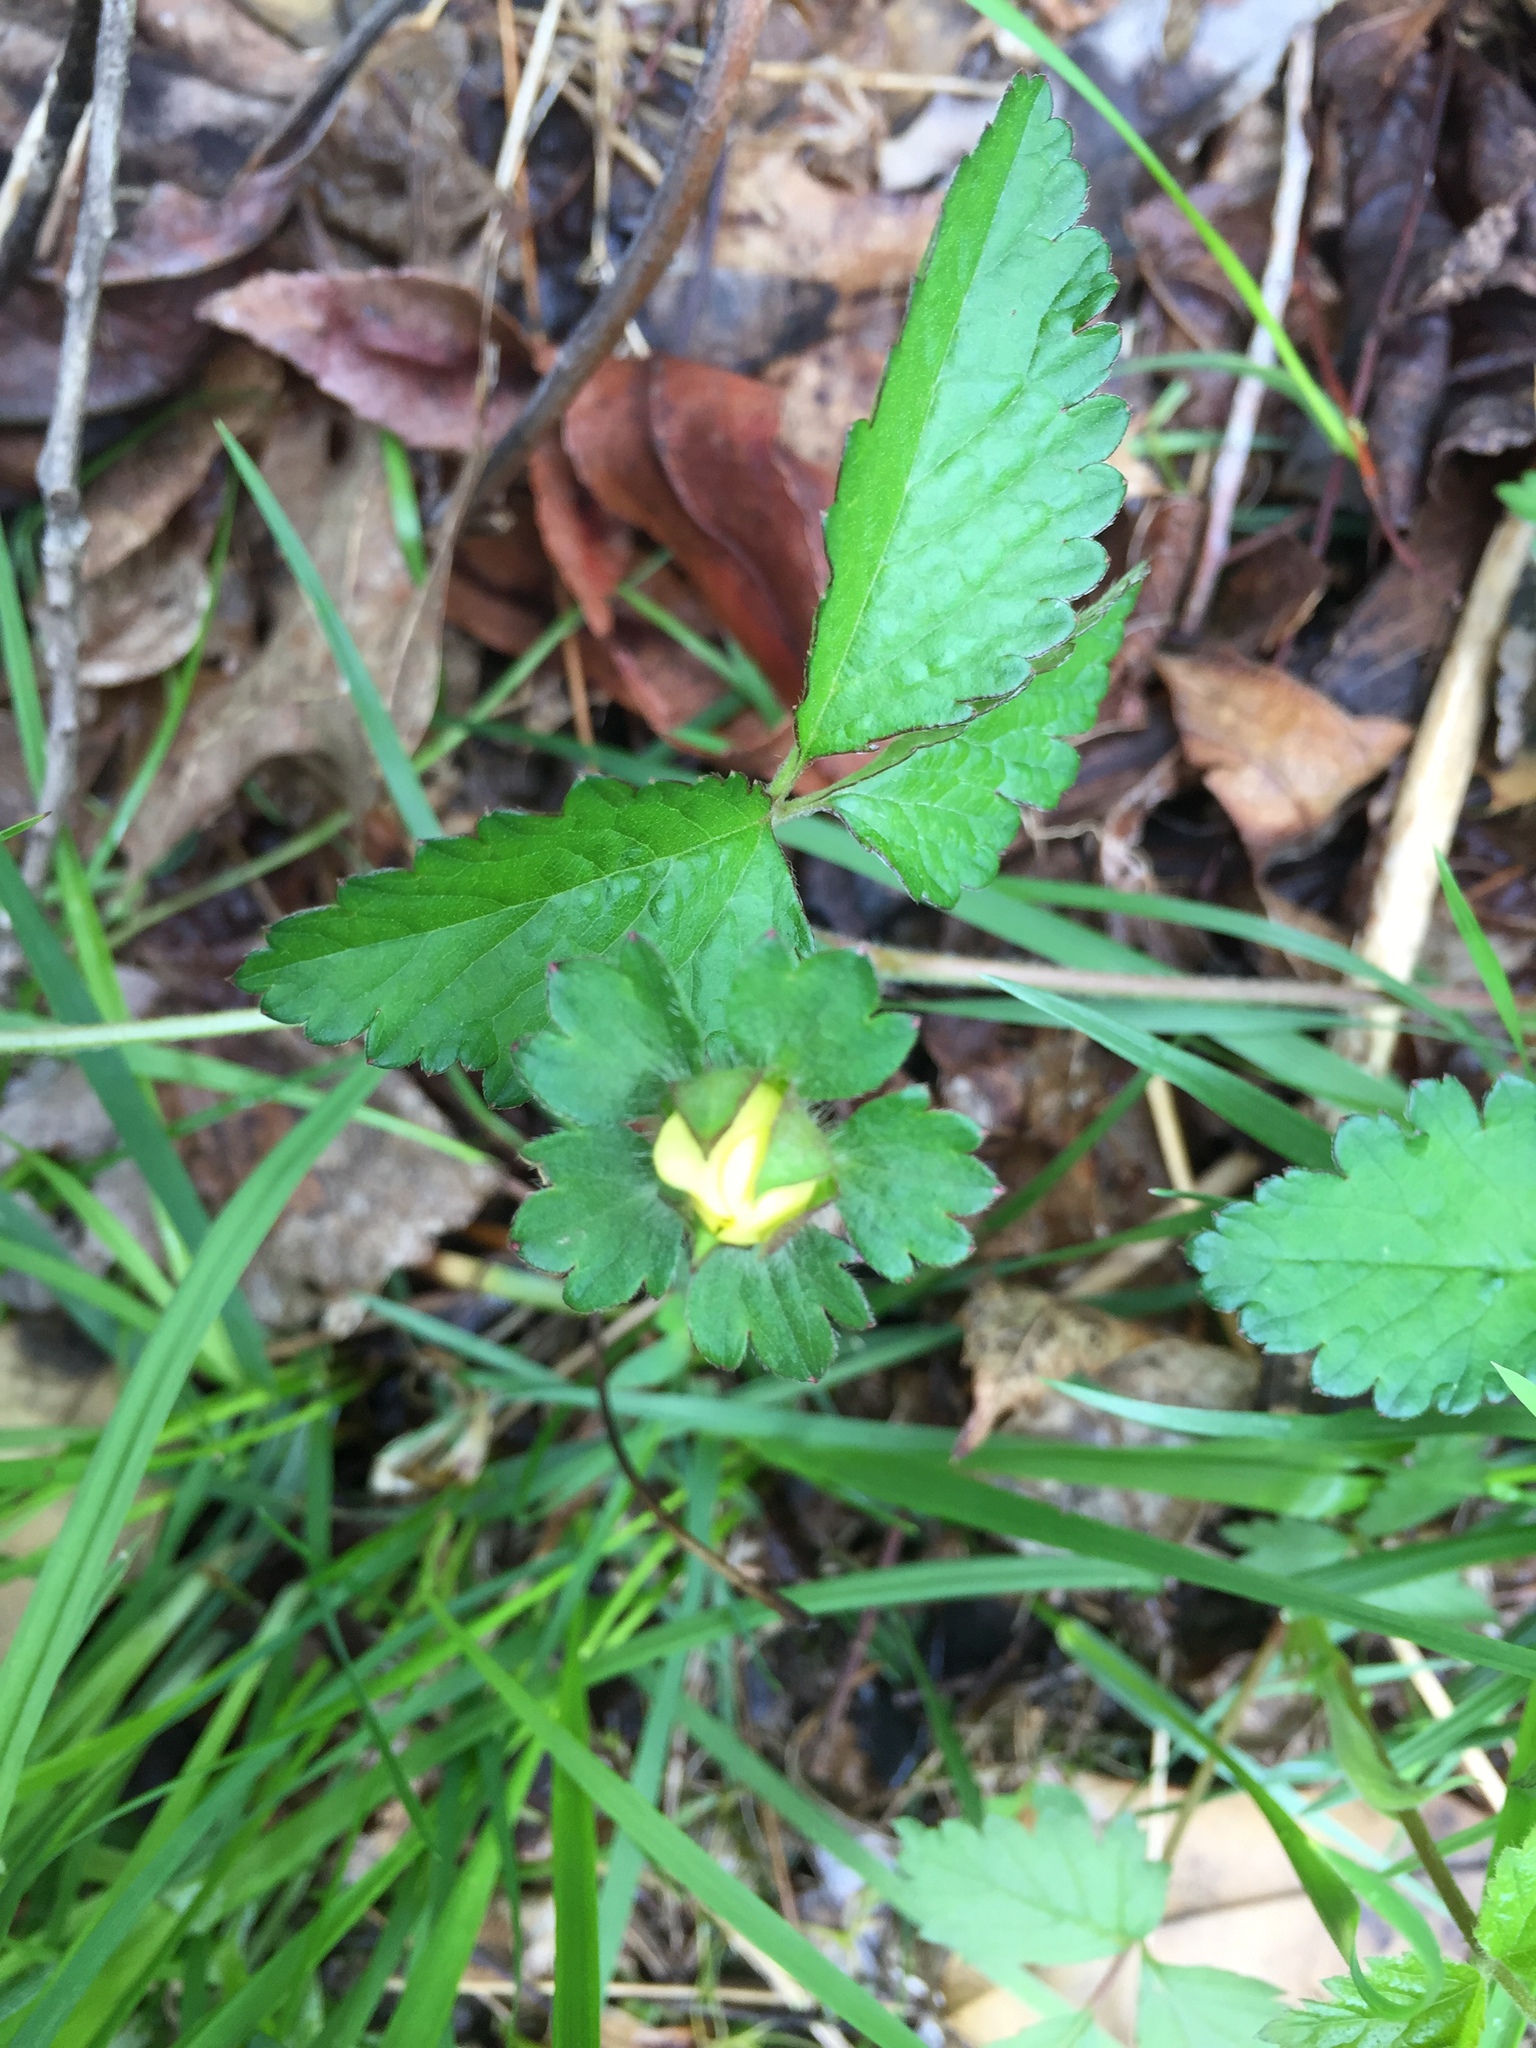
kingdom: Plantae
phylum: Tracheophyta
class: Magnoliopsida
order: Rosales
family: Rosaceae
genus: Potentilla
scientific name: Potentilla indica
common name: Yellow-flowered strawberry
